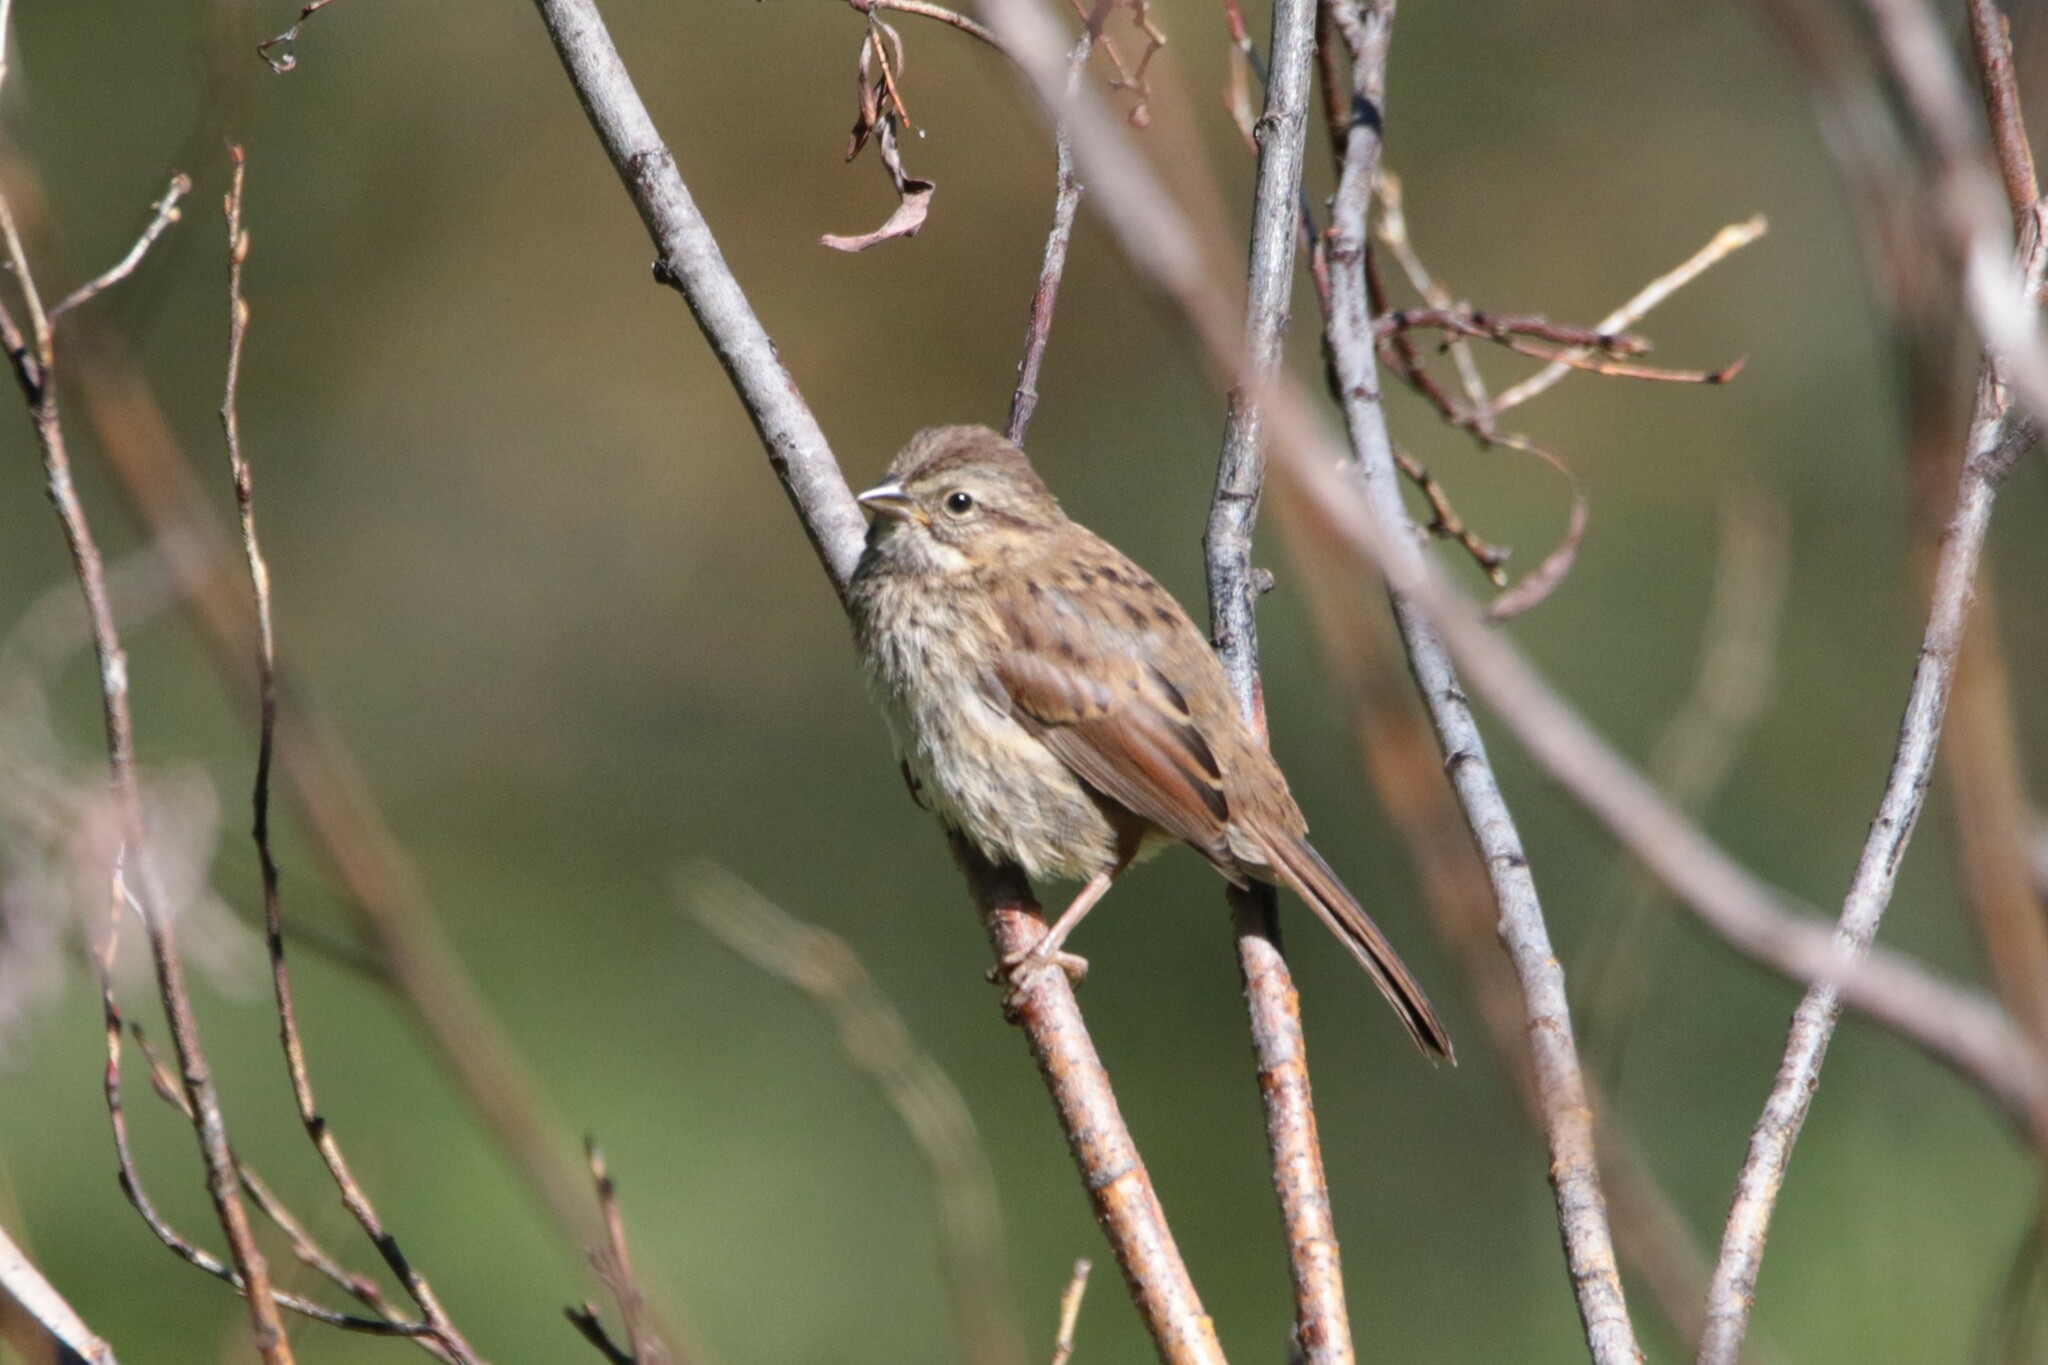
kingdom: Animalia
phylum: Chordata
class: Aves
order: Passeriformes
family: Passerellidae
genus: Melospiza
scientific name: Melospiza melodia
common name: Song sparrow
